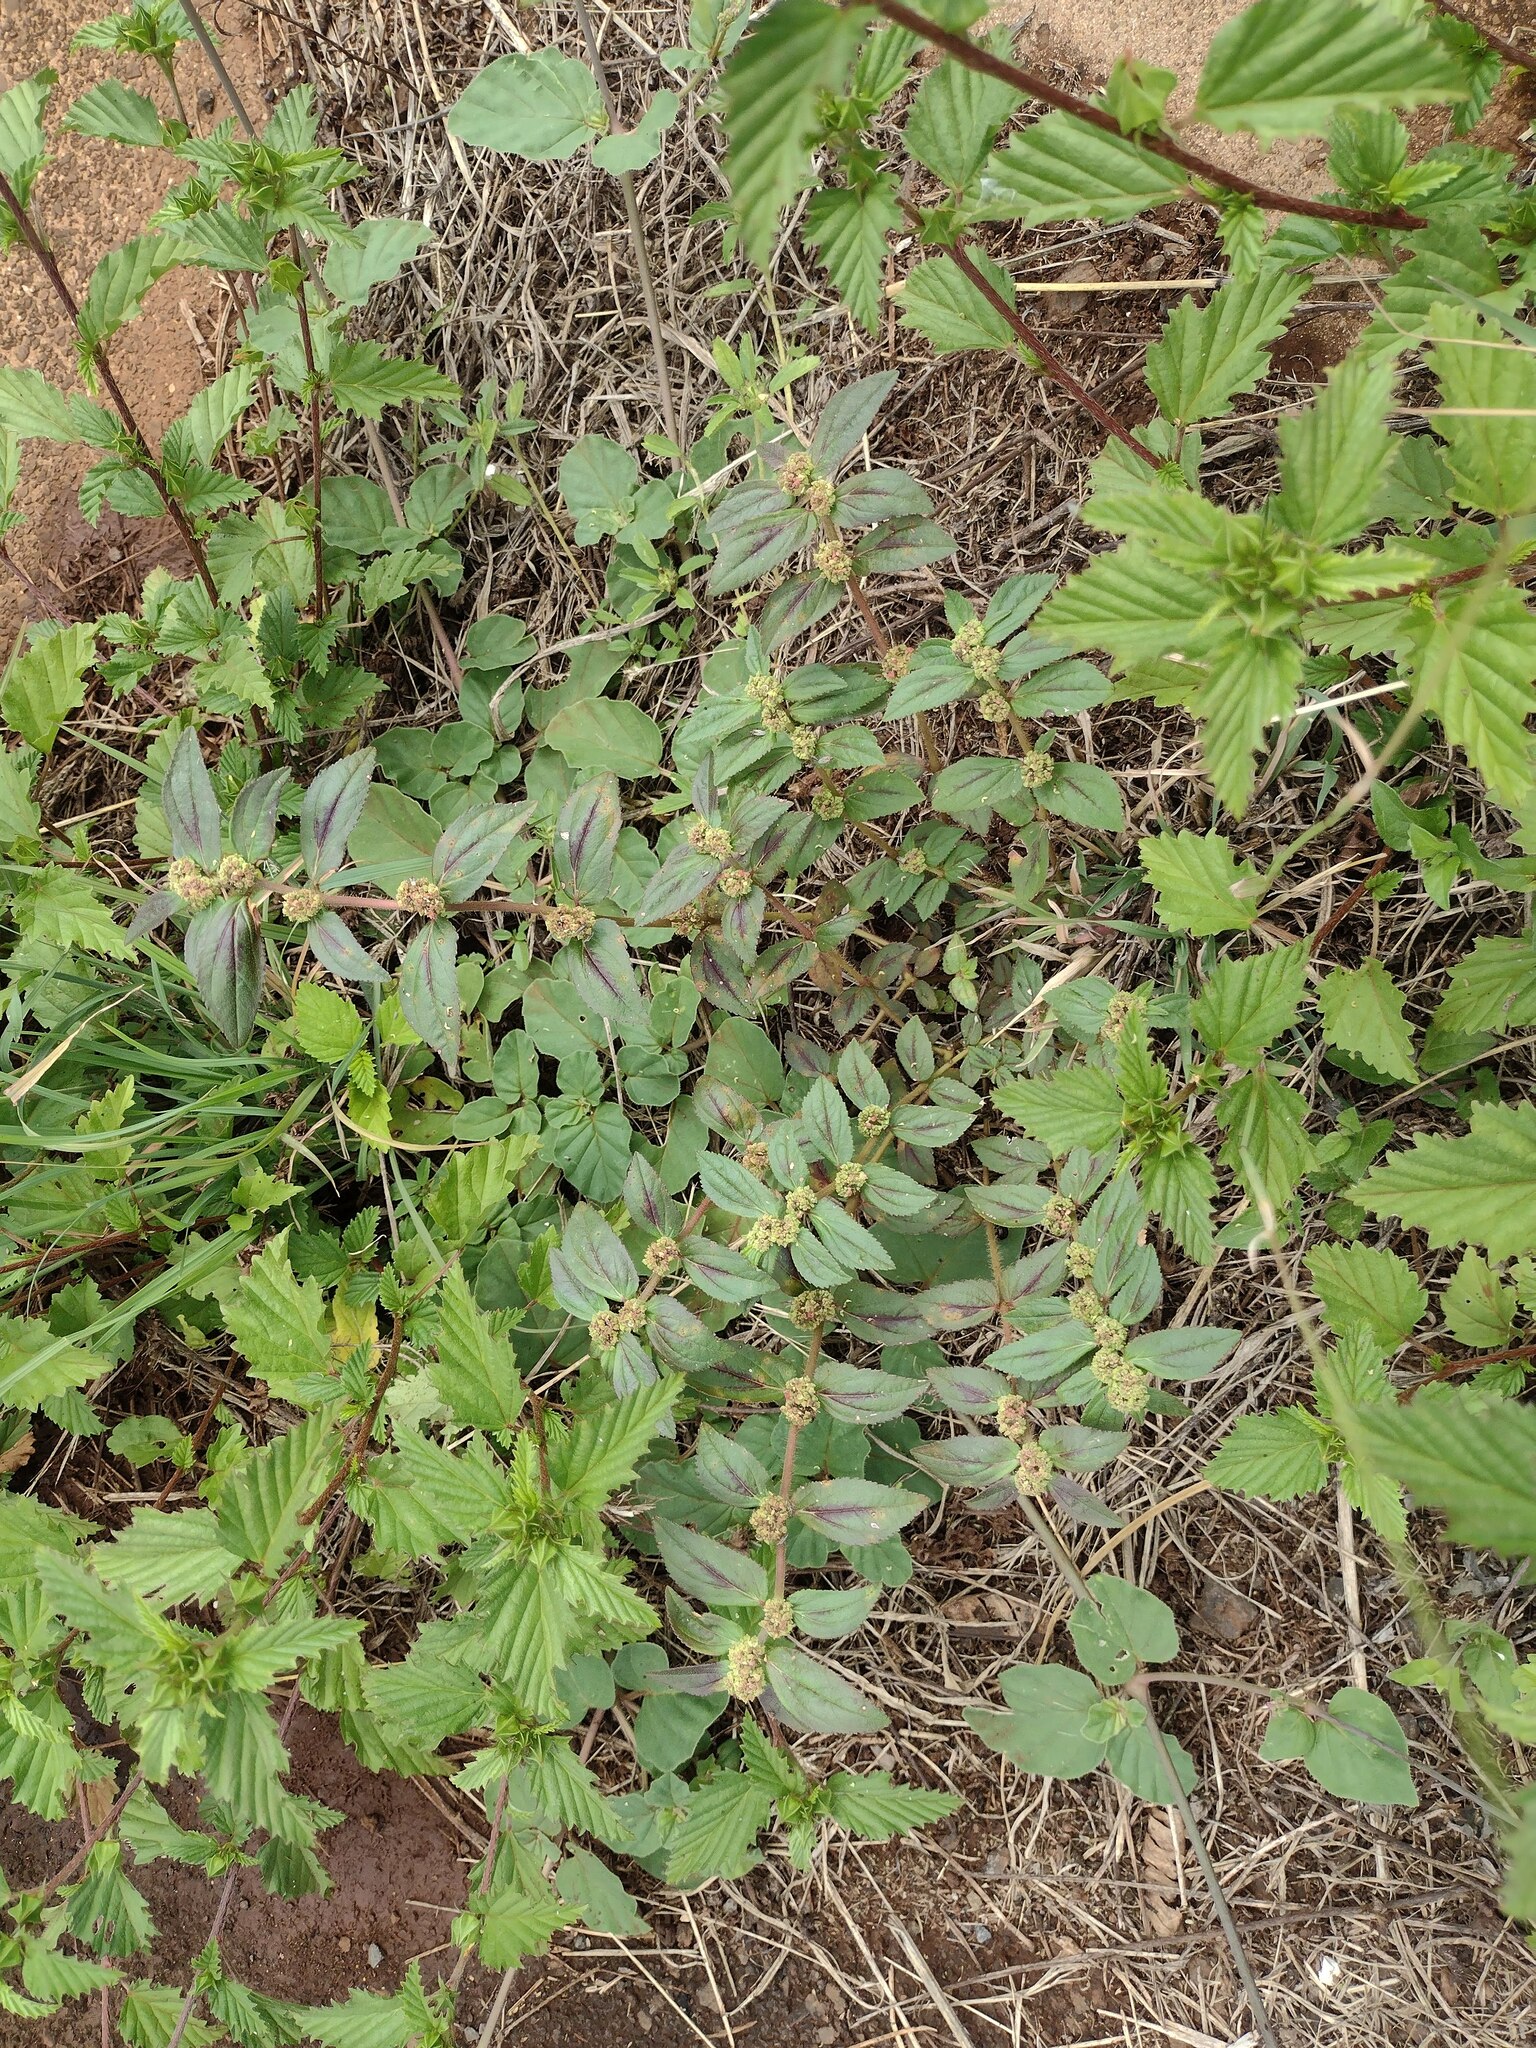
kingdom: Plantae
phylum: Tracheophyta
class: Magnoliopsida
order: Malpighiales
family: Euphorbiaceae
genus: Euphorbia
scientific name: Euphorbia hirta
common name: Pillpod sandmat
